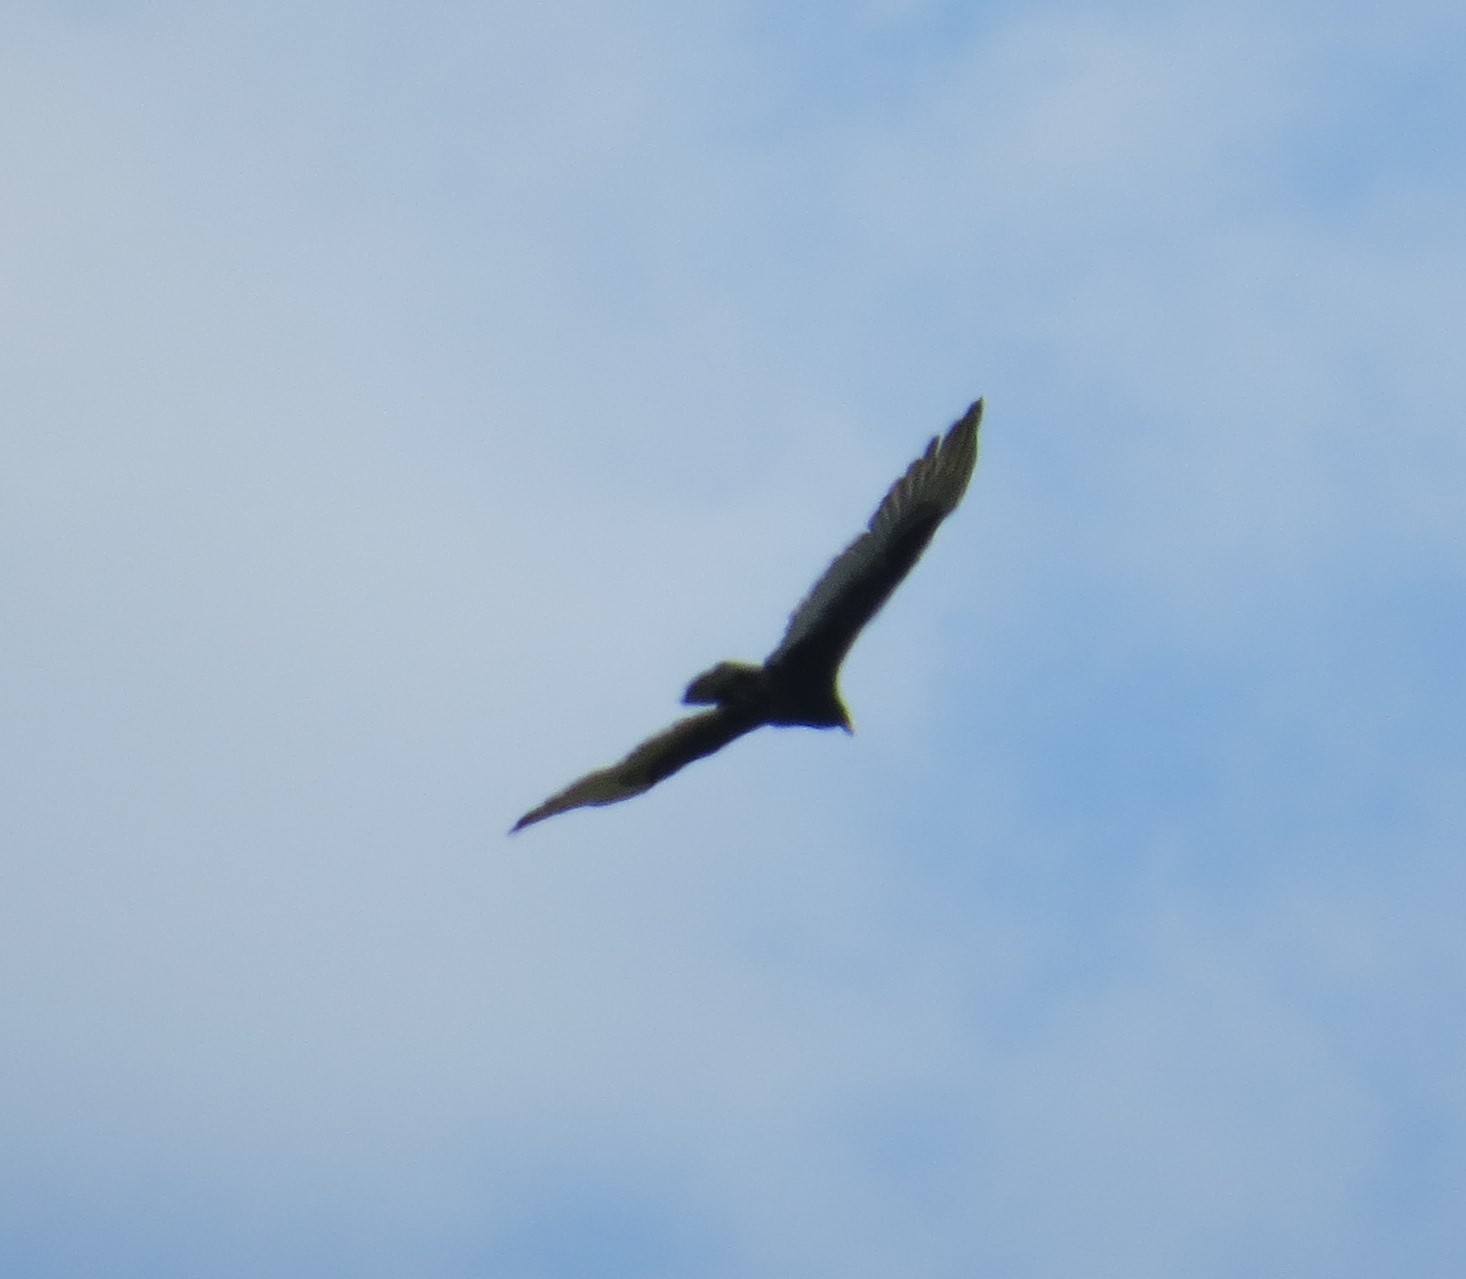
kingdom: Animalia
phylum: Chordata
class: Aves
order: Accipitriformes
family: Cathartidae
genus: Cathartes
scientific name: Cathartes aura
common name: Turkey vulture
